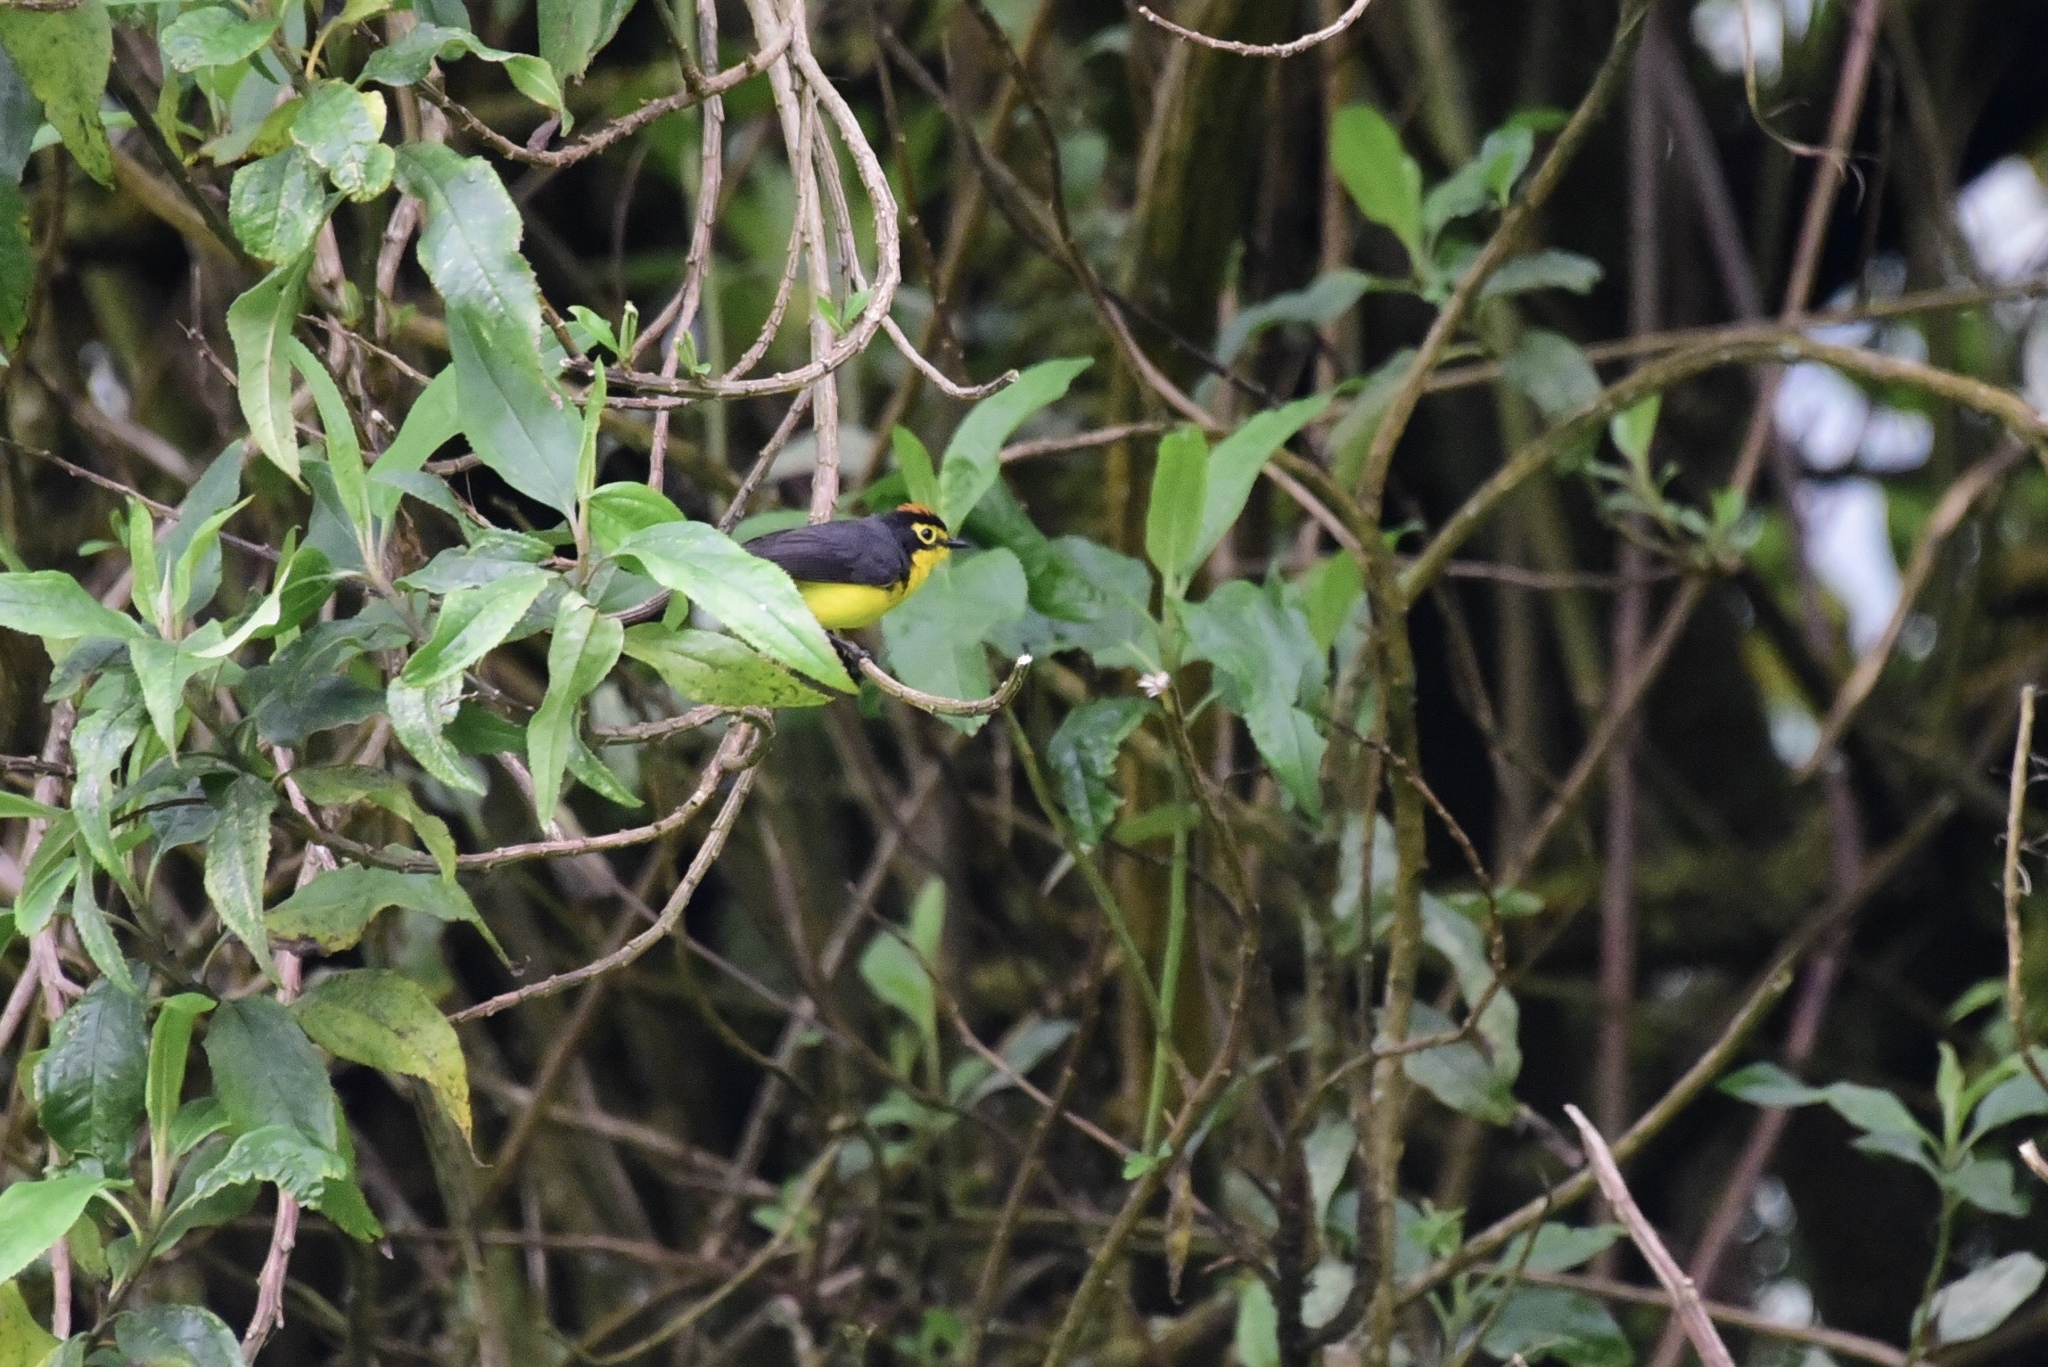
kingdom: Animalia
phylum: Chordata
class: Aves
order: Passeriformes
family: Parulidae
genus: Myioborus
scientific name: Myioborus melanocephalus
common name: Spectacled whitestart
